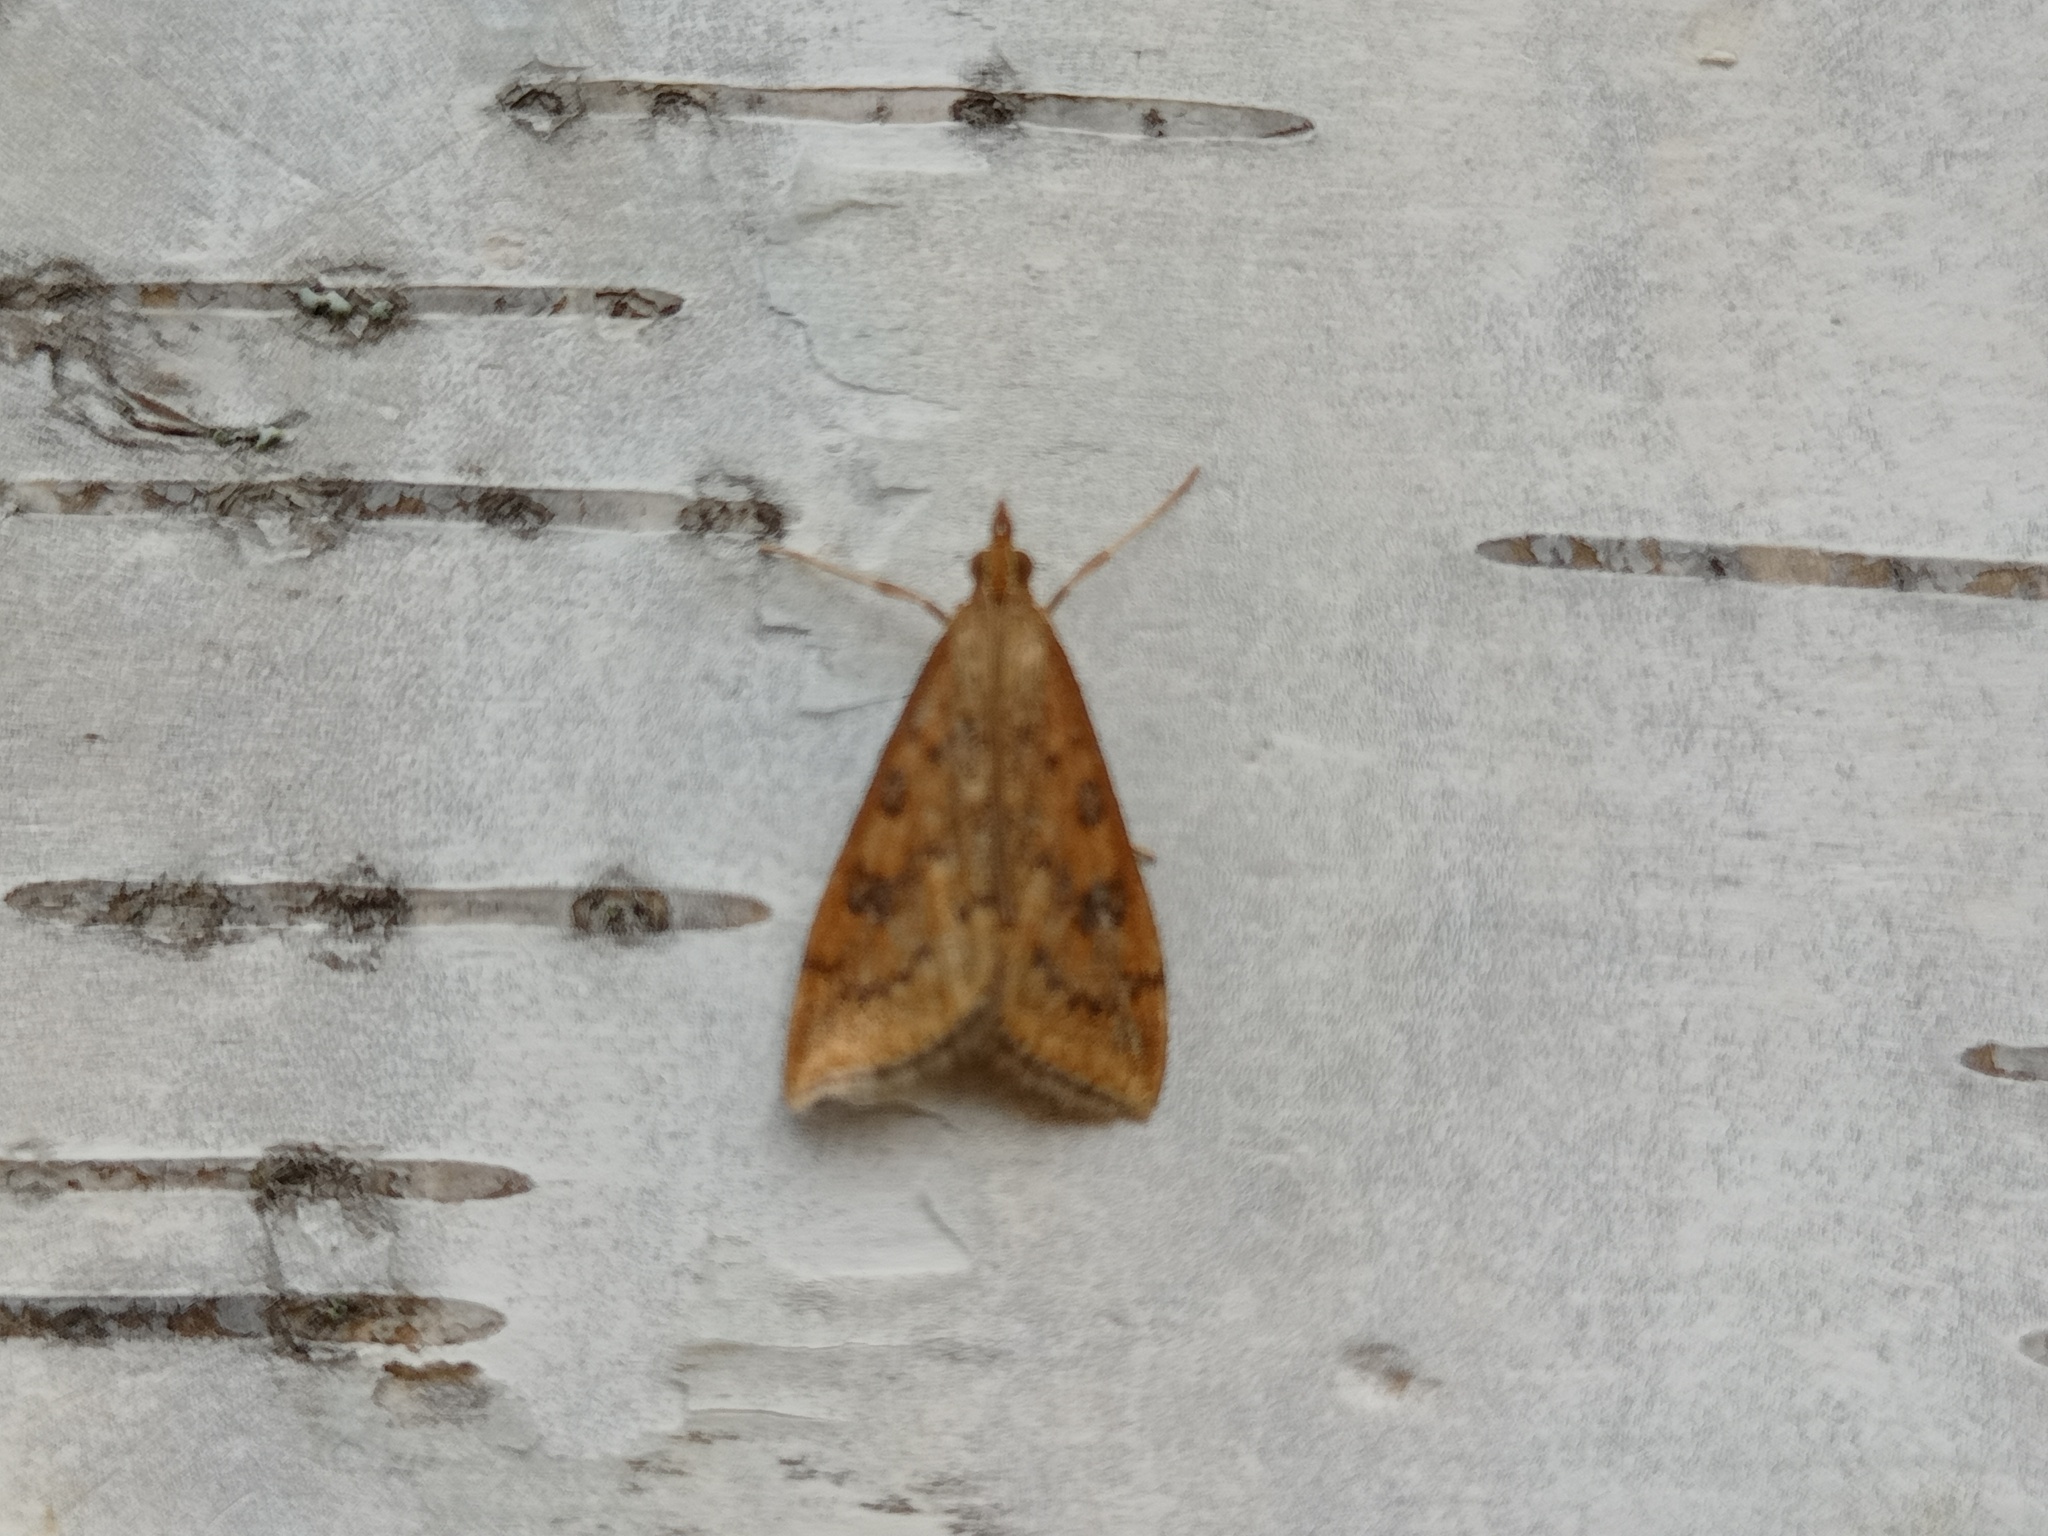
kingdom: Animalia
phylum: Arthropoda
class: Insecta
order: Lepidoptera
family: Crambidae
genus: Udea
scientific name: Udea ferrugalis
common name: Rusty dot
